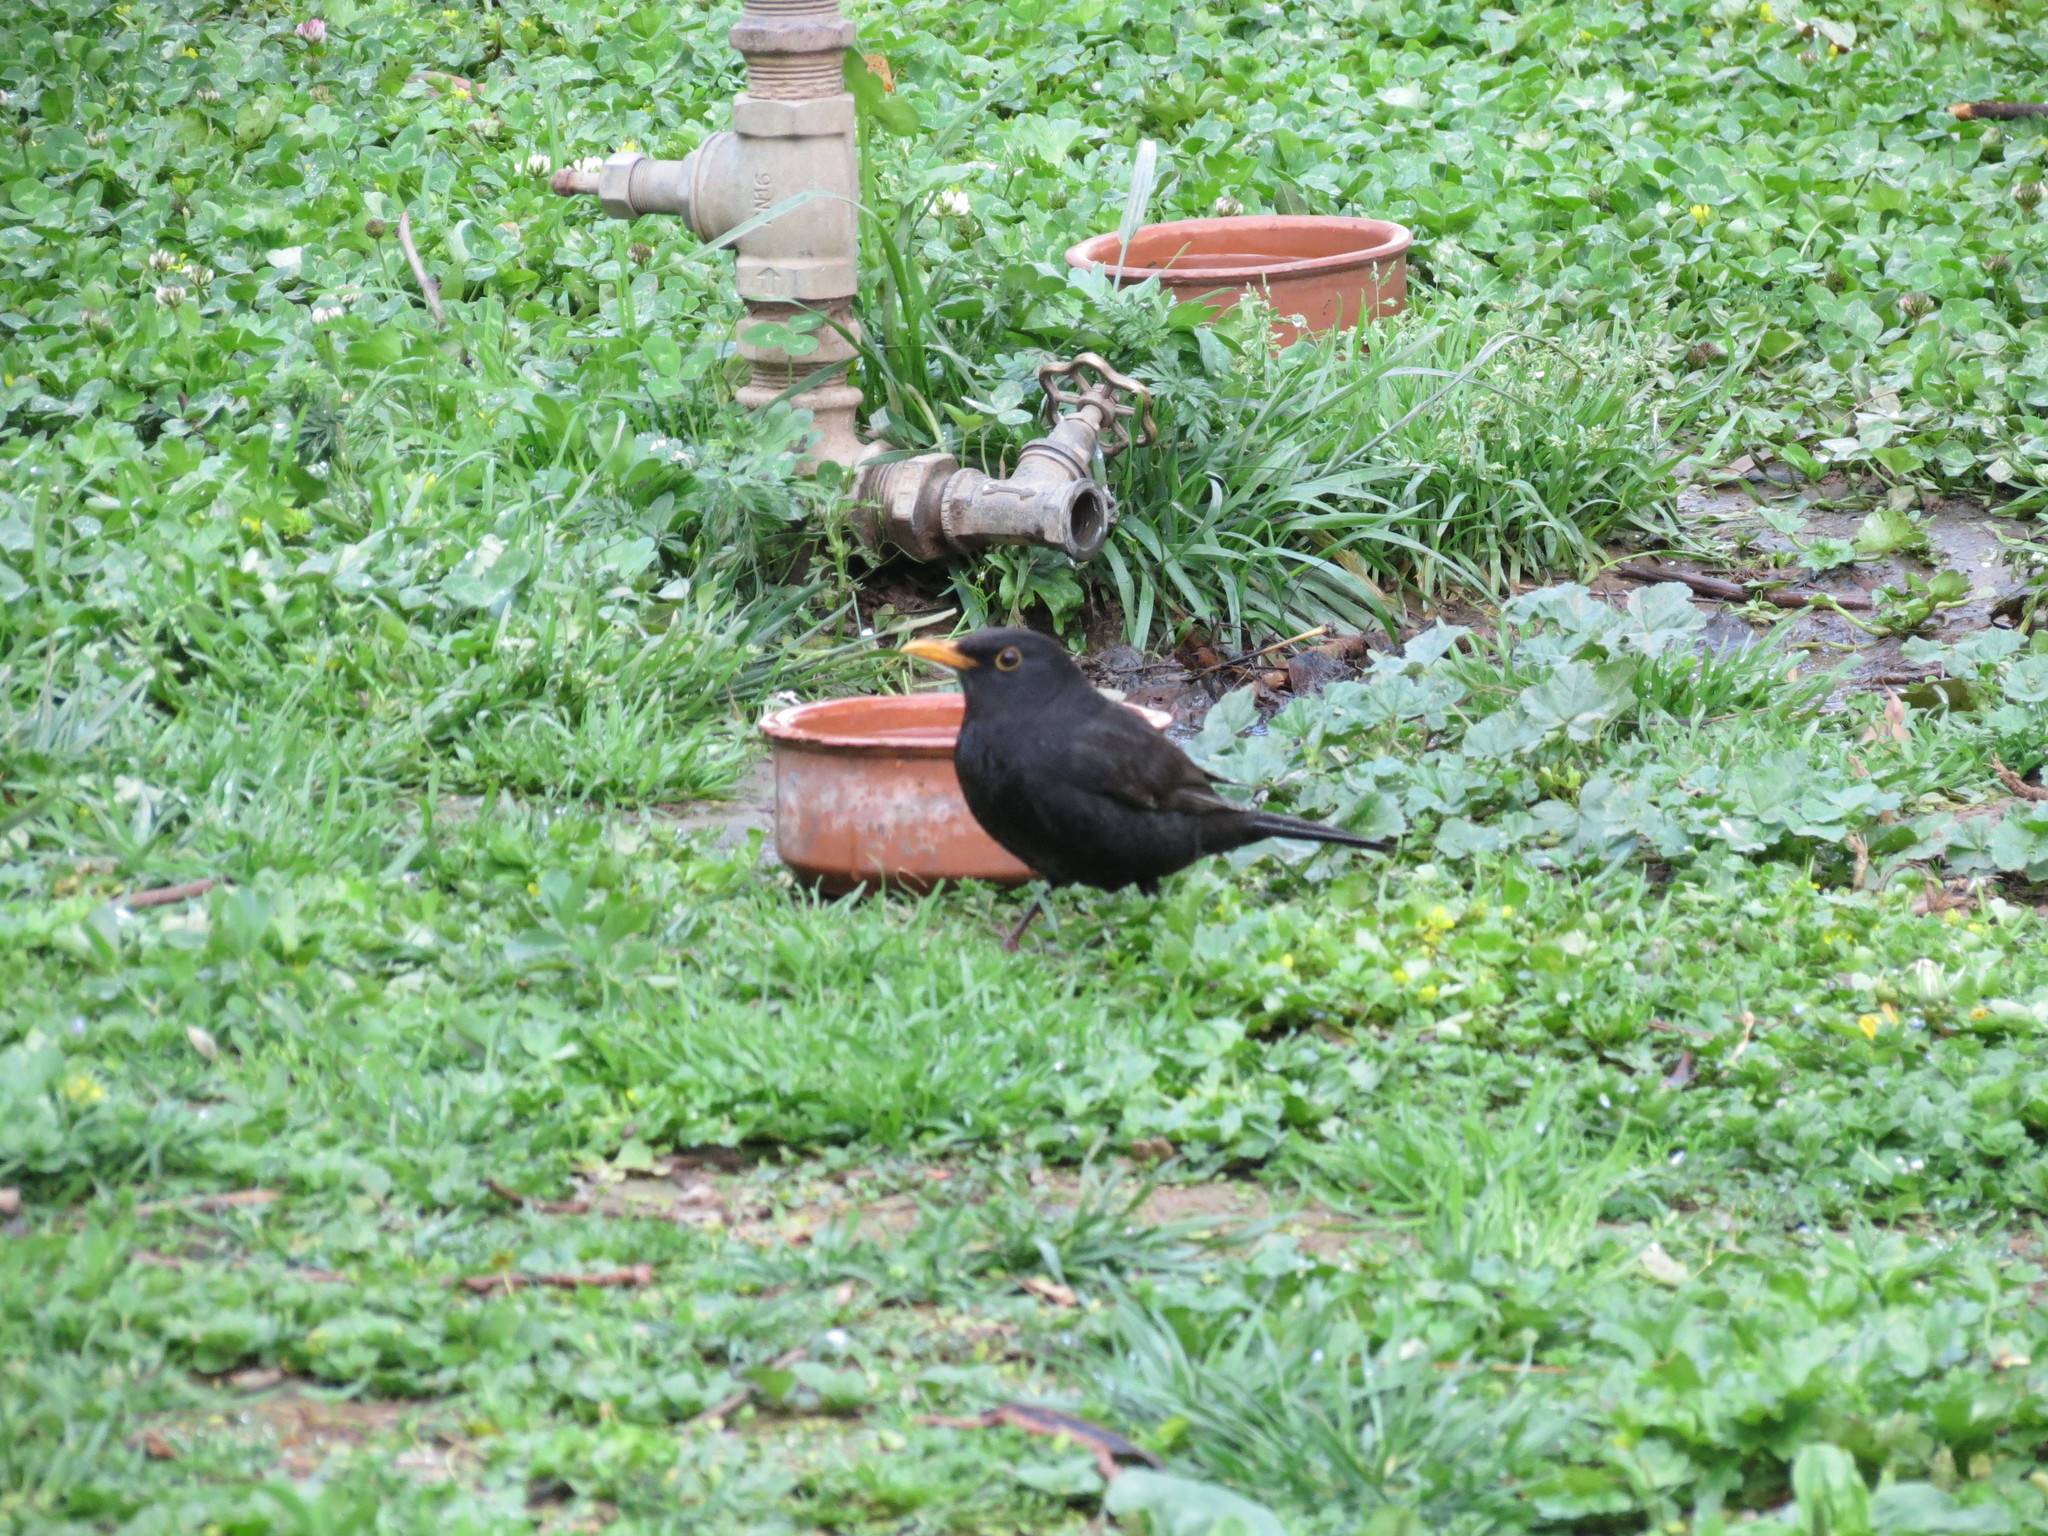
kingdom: Animalia
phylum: Chordata
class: Aves
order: Passeriformes
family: Turdidae
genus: Turdus
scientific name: Turdus merula
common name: Common blackbird
